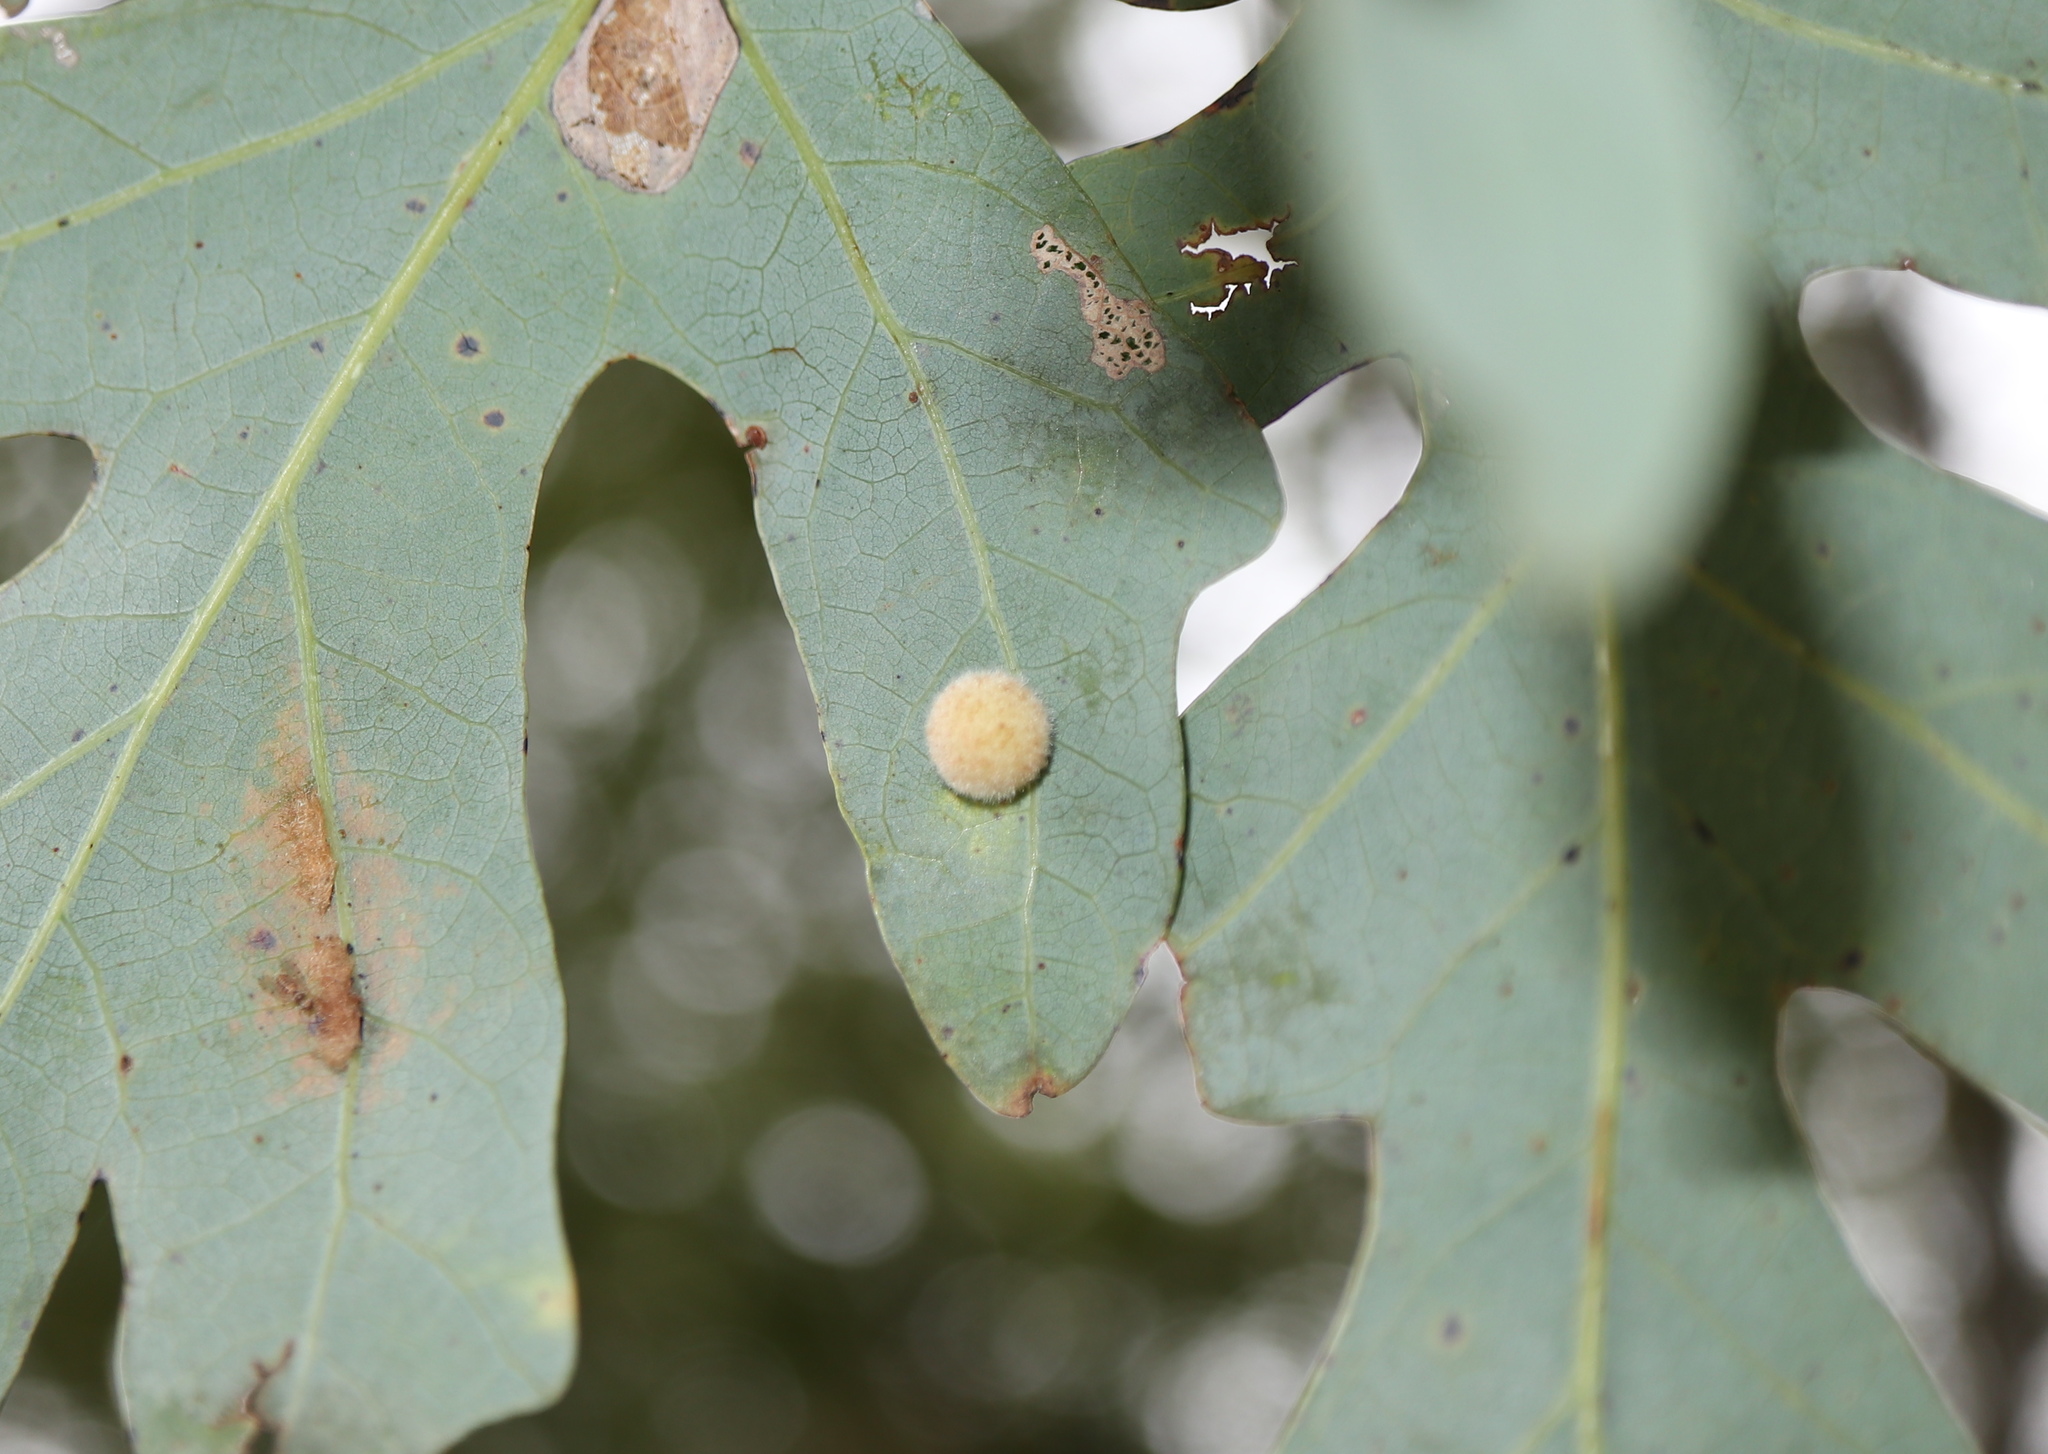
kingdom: Animalia
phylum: Arthropoda
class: Insecta
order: Hymenoptera
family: Cynipidae
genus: Philonix
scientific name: Philonix fulvicollis
